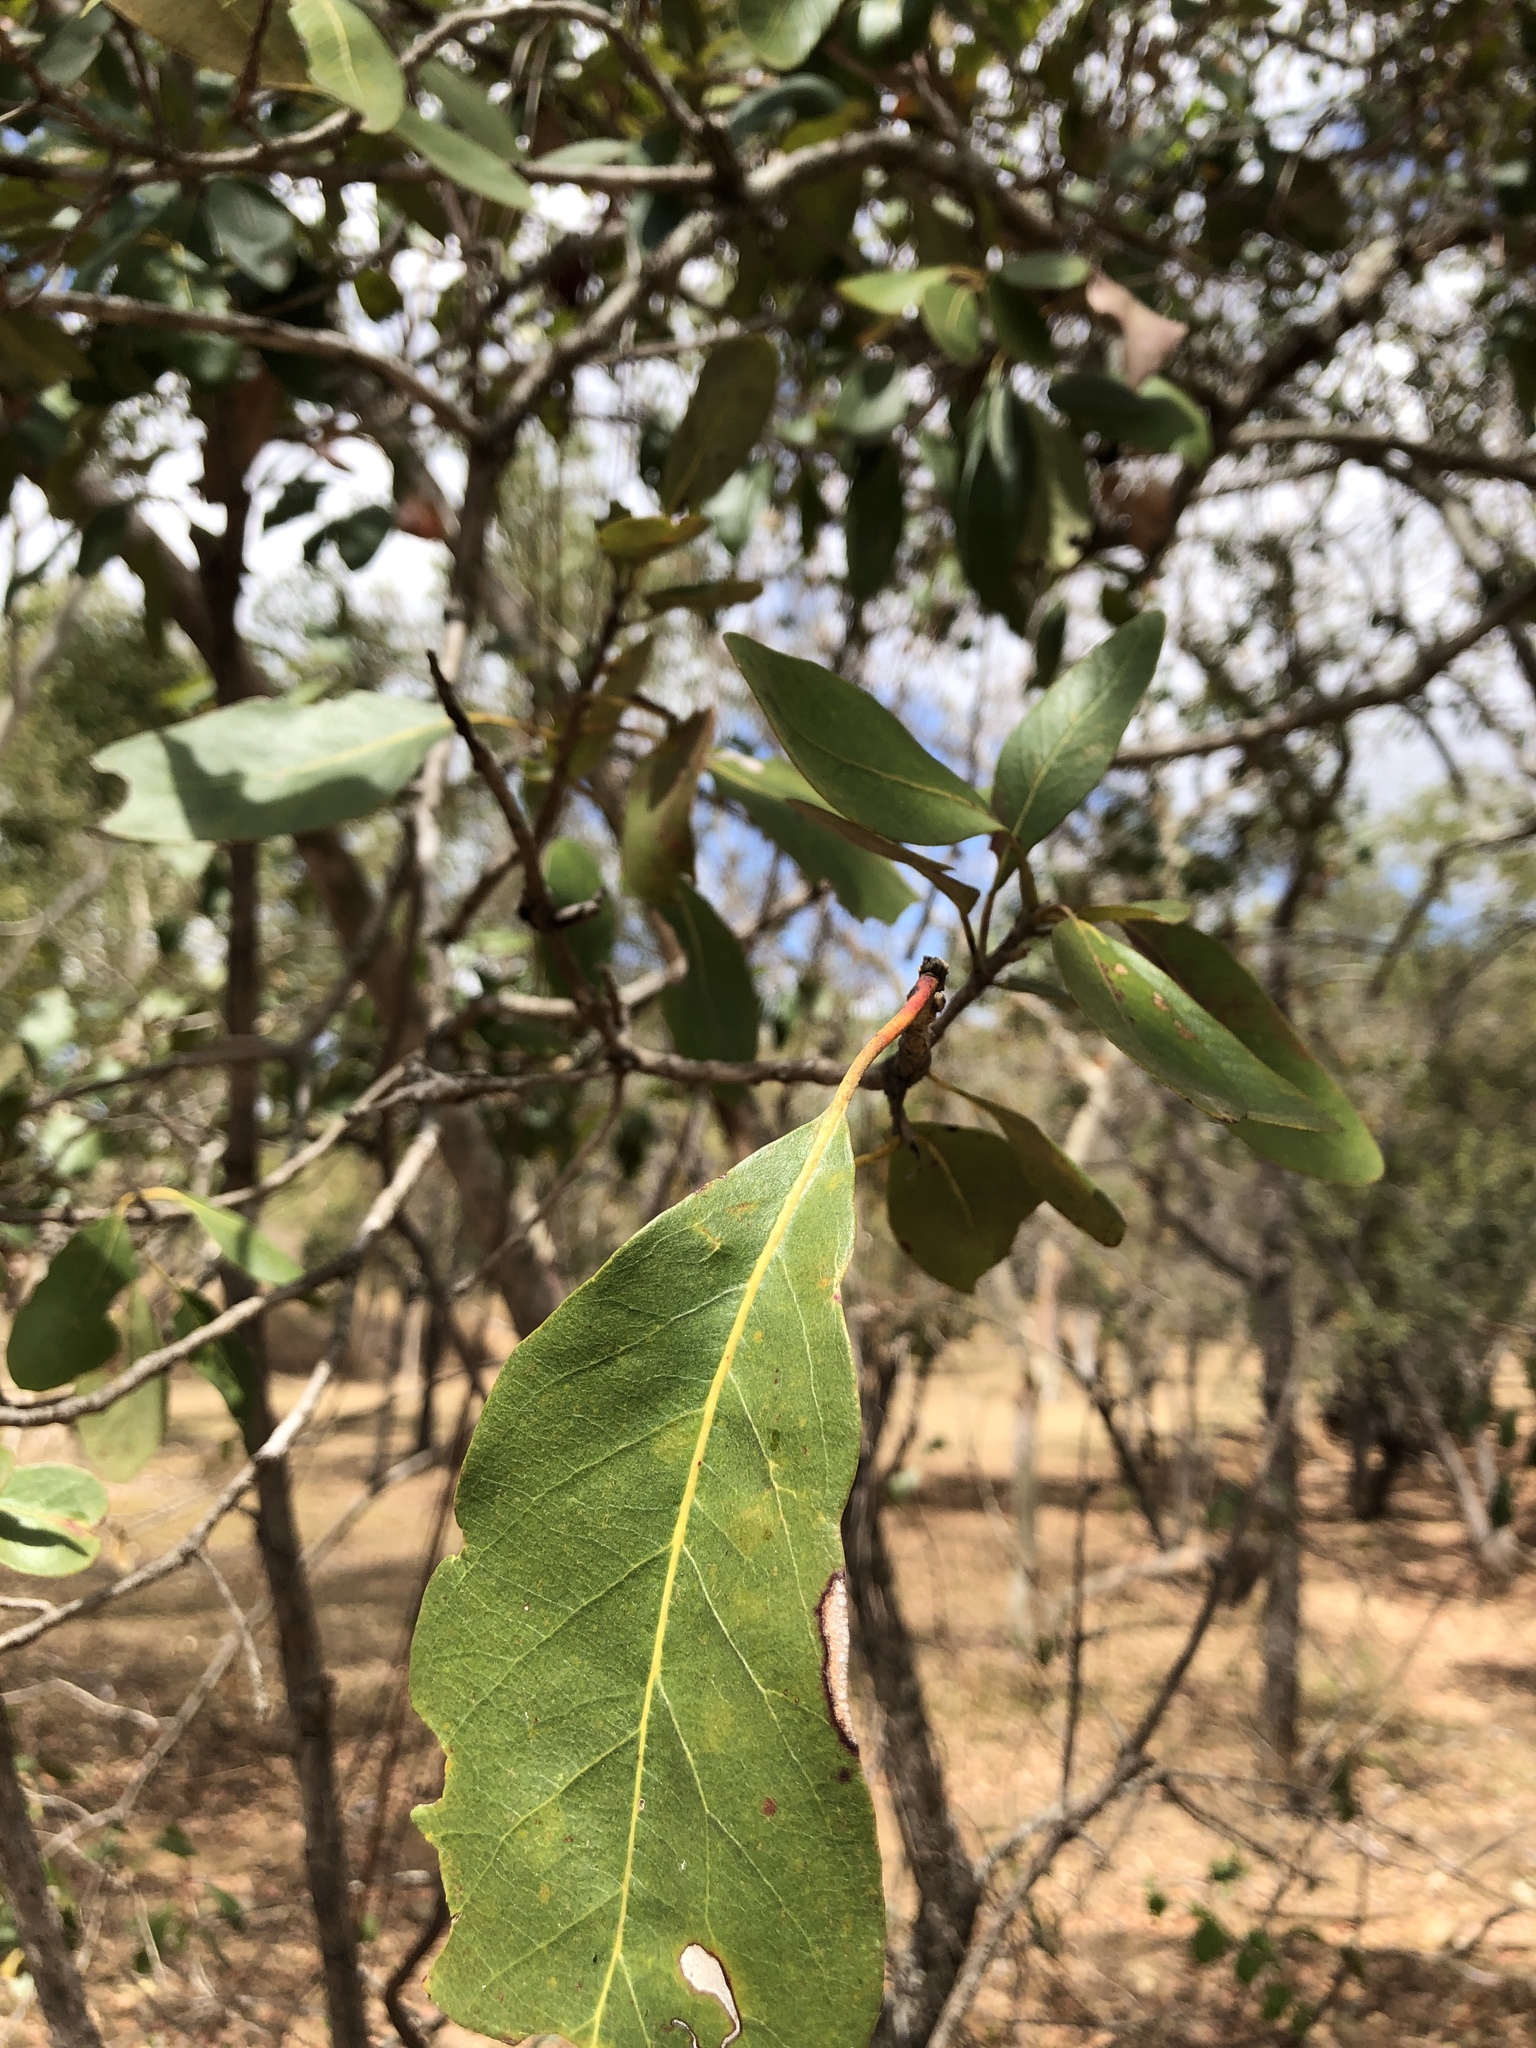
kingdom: Plantae
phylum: Tracheophyta
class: Magnoliopsida
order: Myrtales
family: Myrtaceae
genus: Lophostemon
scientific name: Lophostemon grandiflorus
